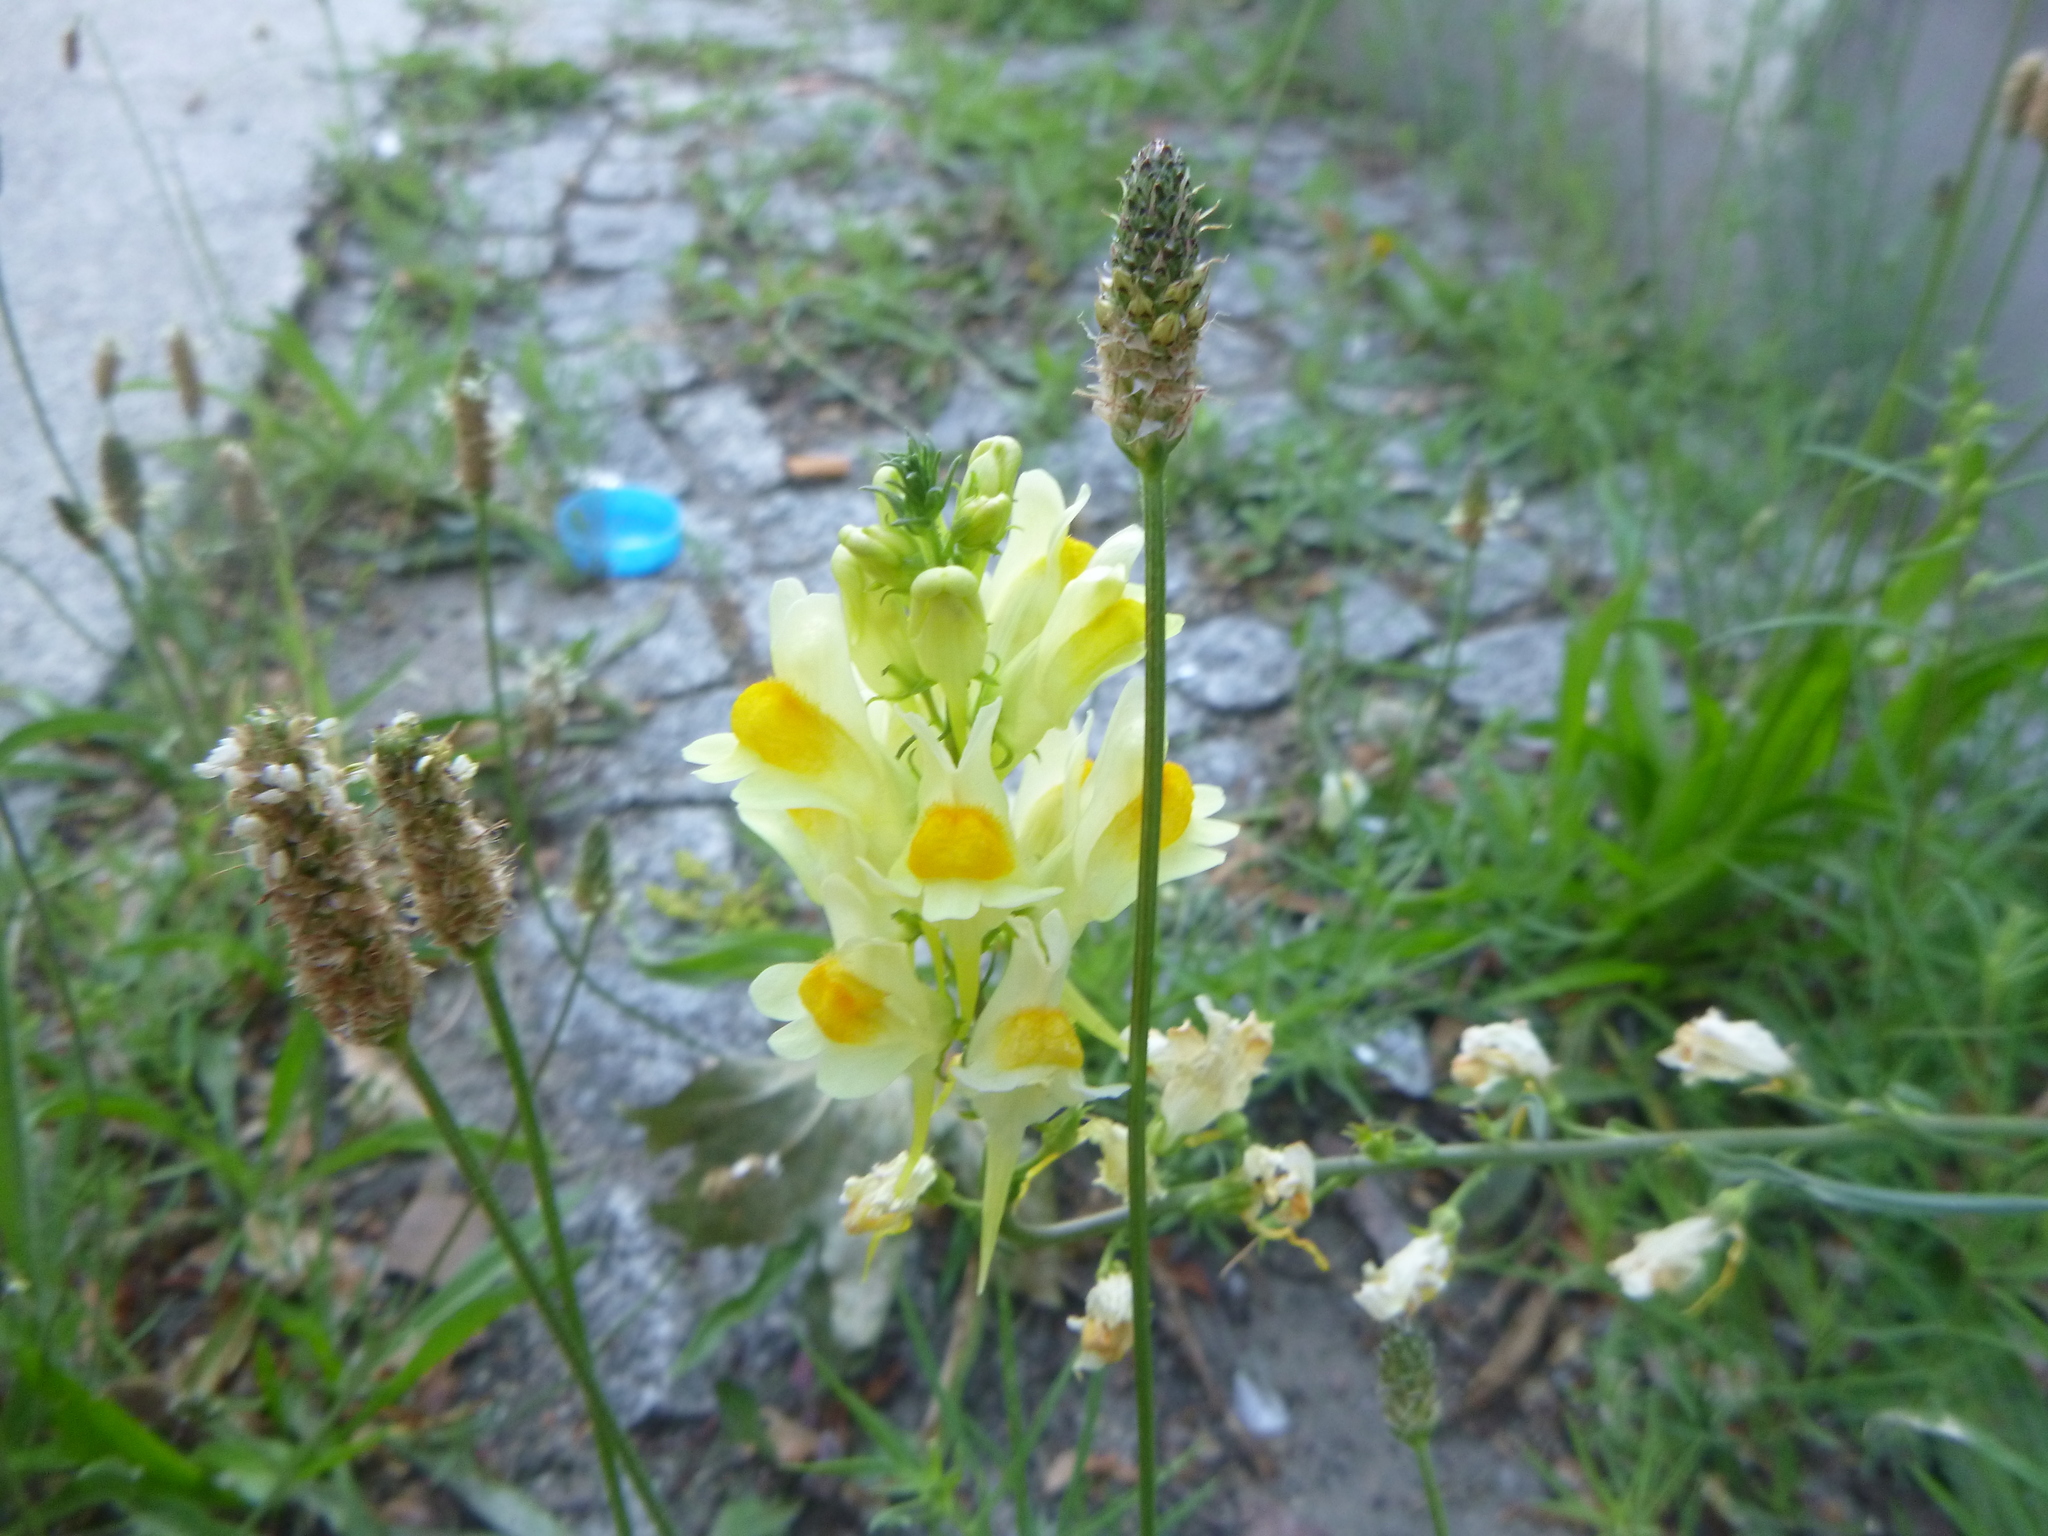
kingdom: Plantae
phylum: Tracheophyta
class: Magnoliopsida
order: Lamiales
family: Plantaginaceae
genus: Linaria
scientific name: Linaria vulgaris
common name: Butter and eggs
